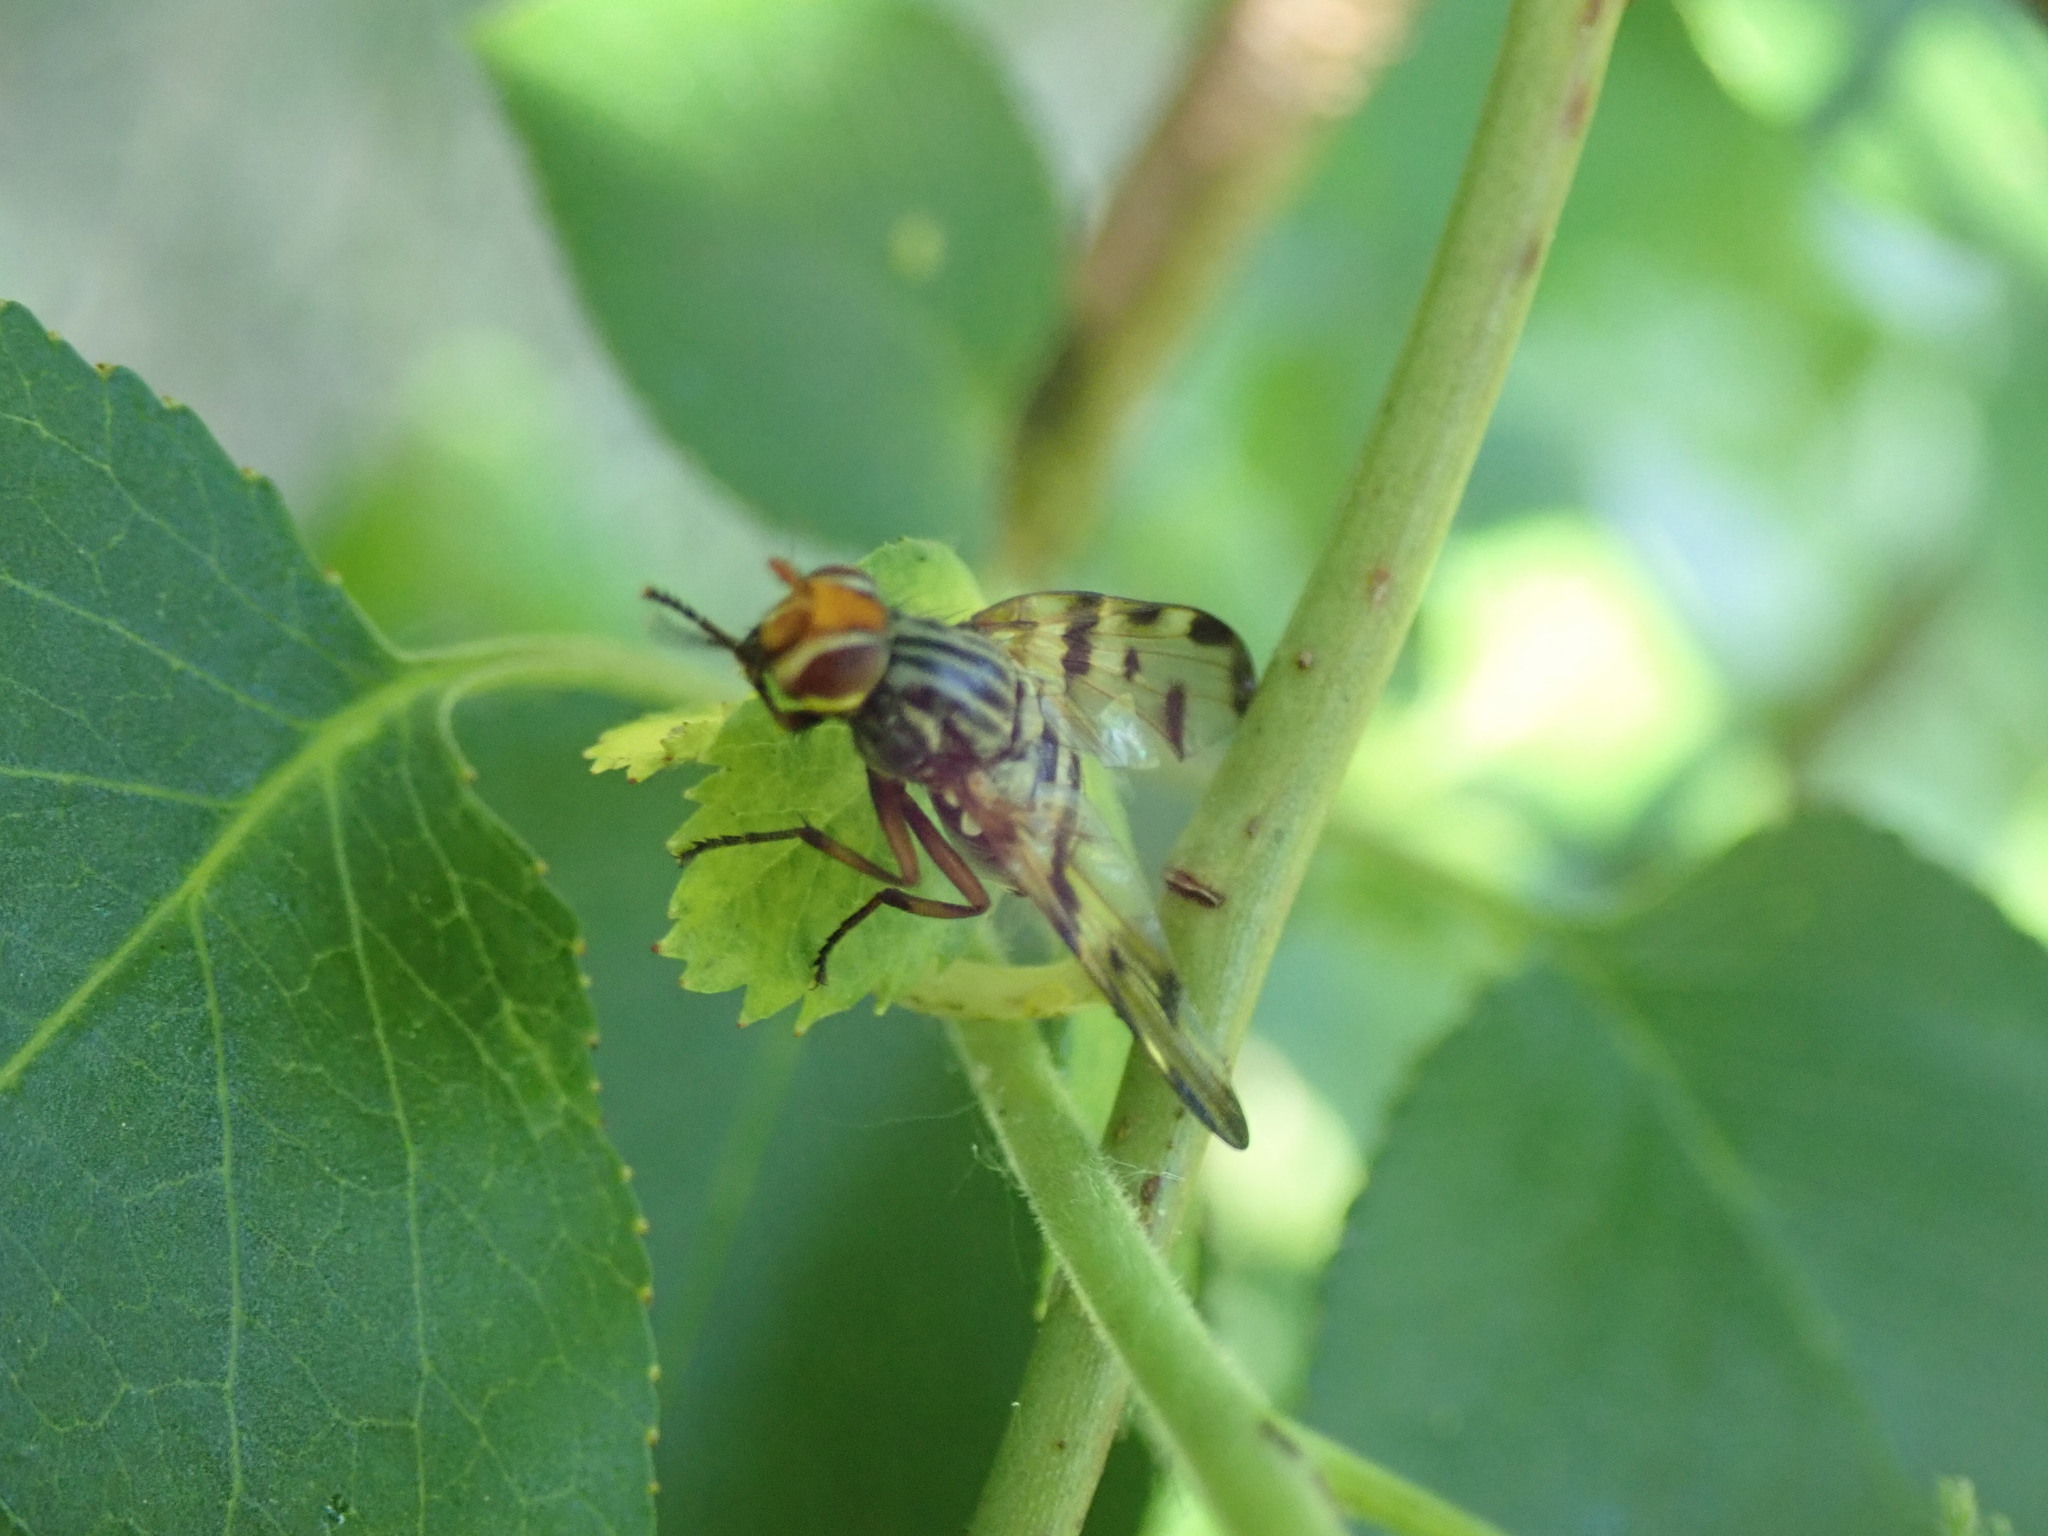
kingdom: Animalia
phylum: Arthropoda
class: Insecta
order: Diptera
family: Ulidiidae
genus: Otites
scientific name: Otites porcus
